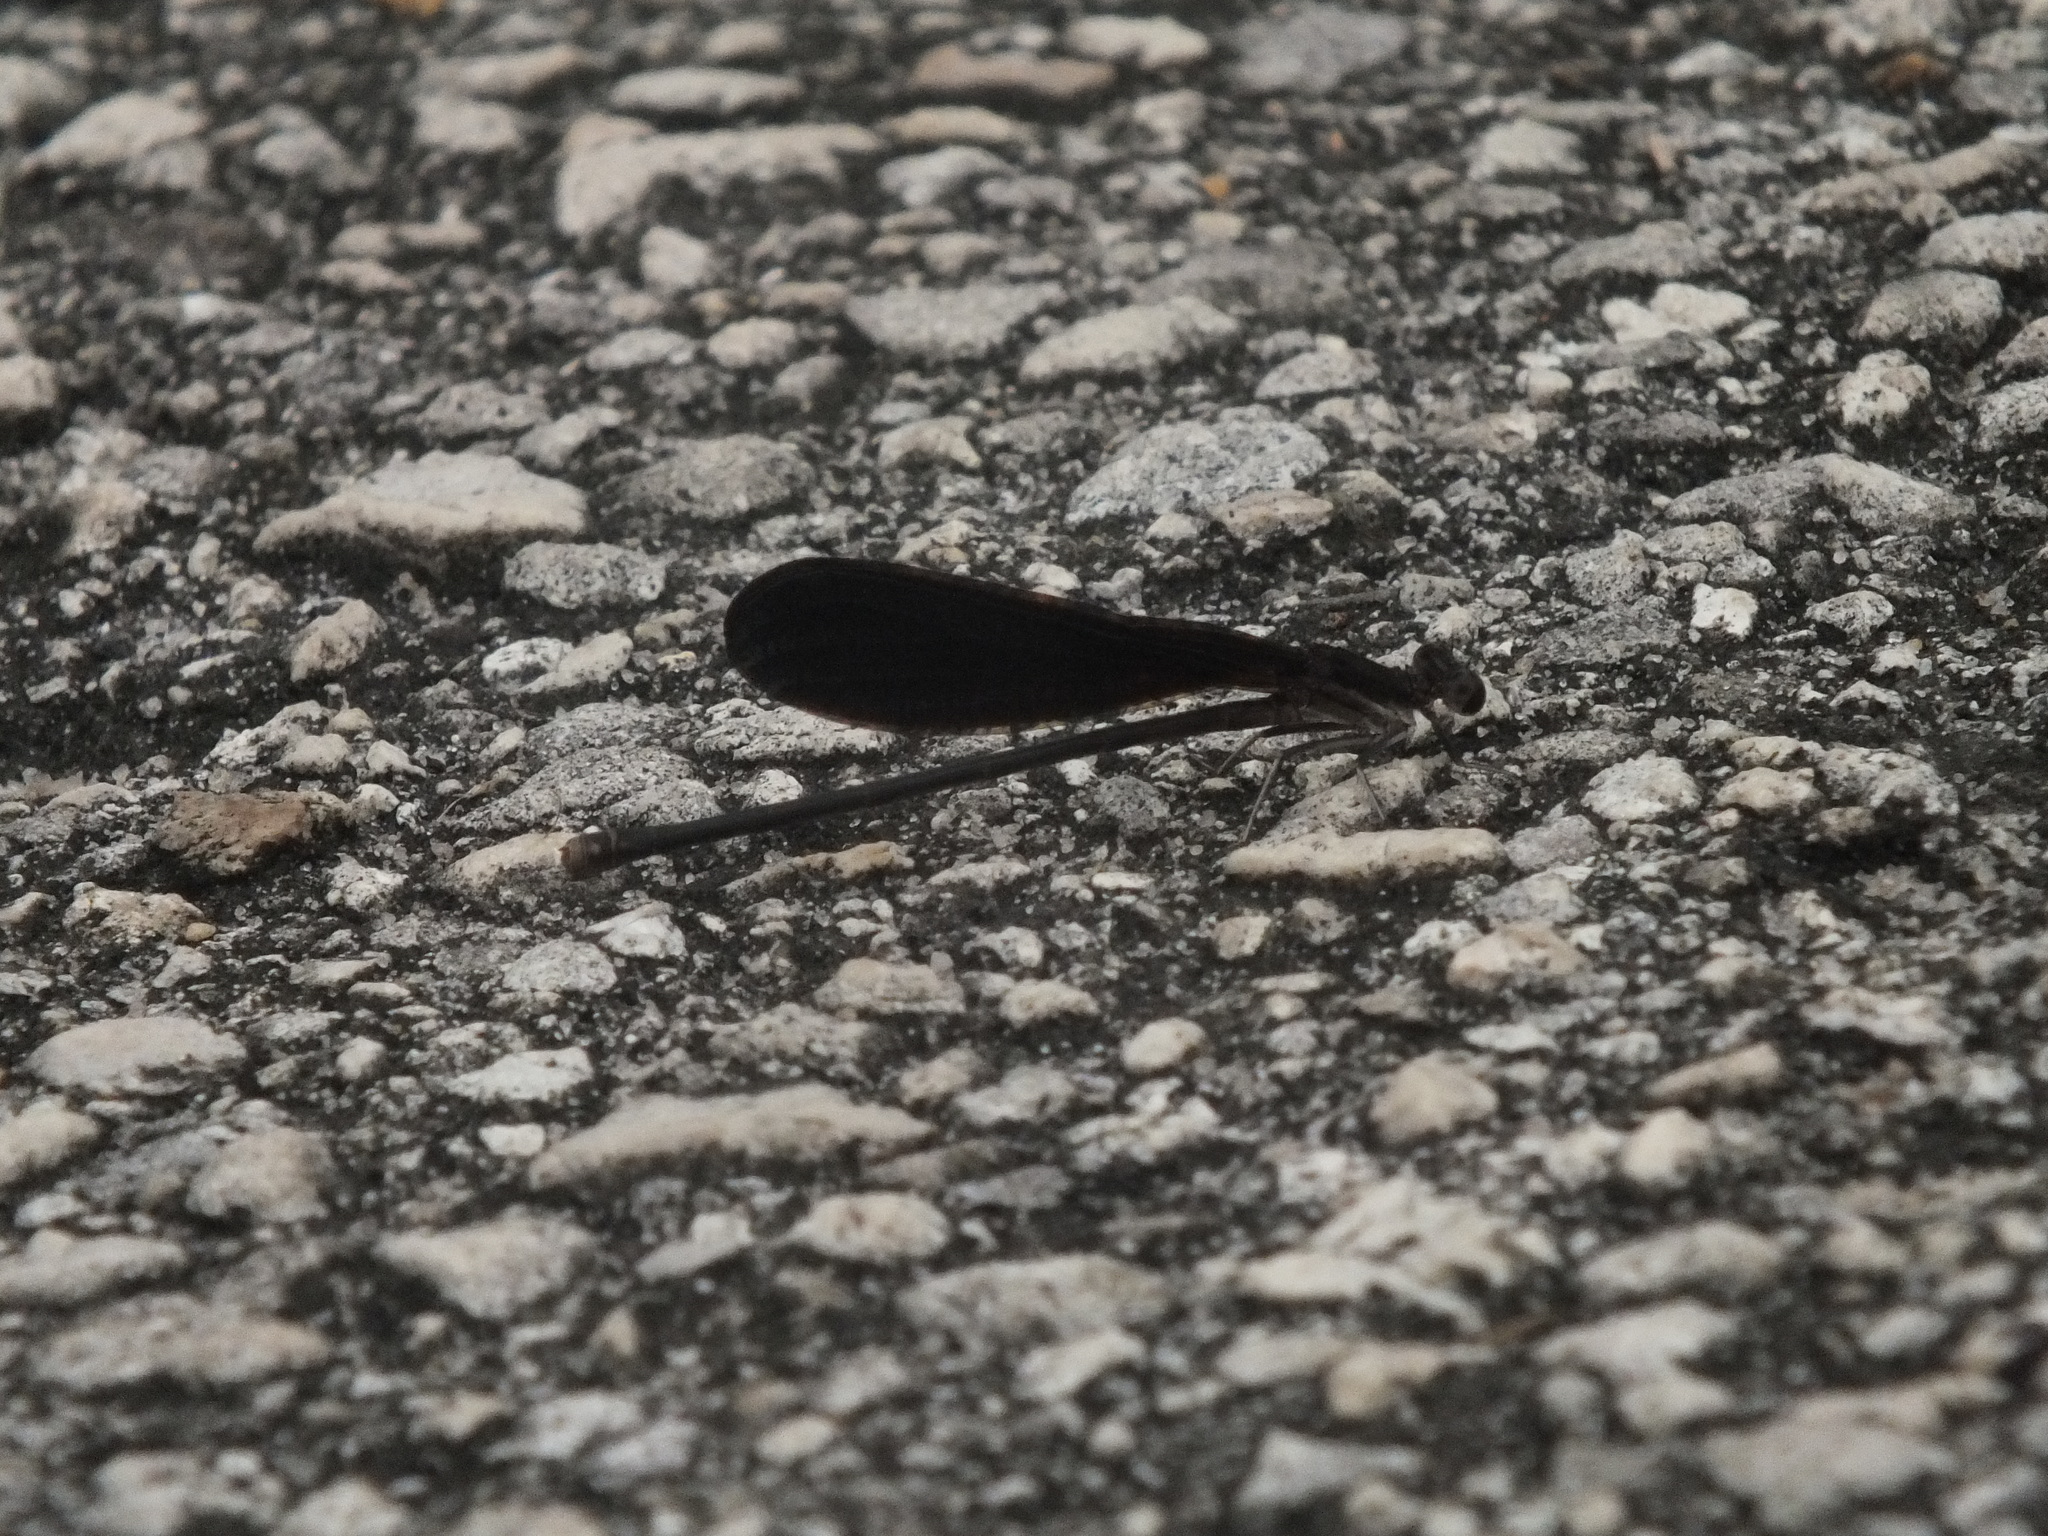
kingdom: Animalia
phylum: Arthropoda
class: Insecta
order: Odonata
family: Coenagrionidae
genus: Argia
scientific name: Argia fumipennis
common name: Variable dancer
